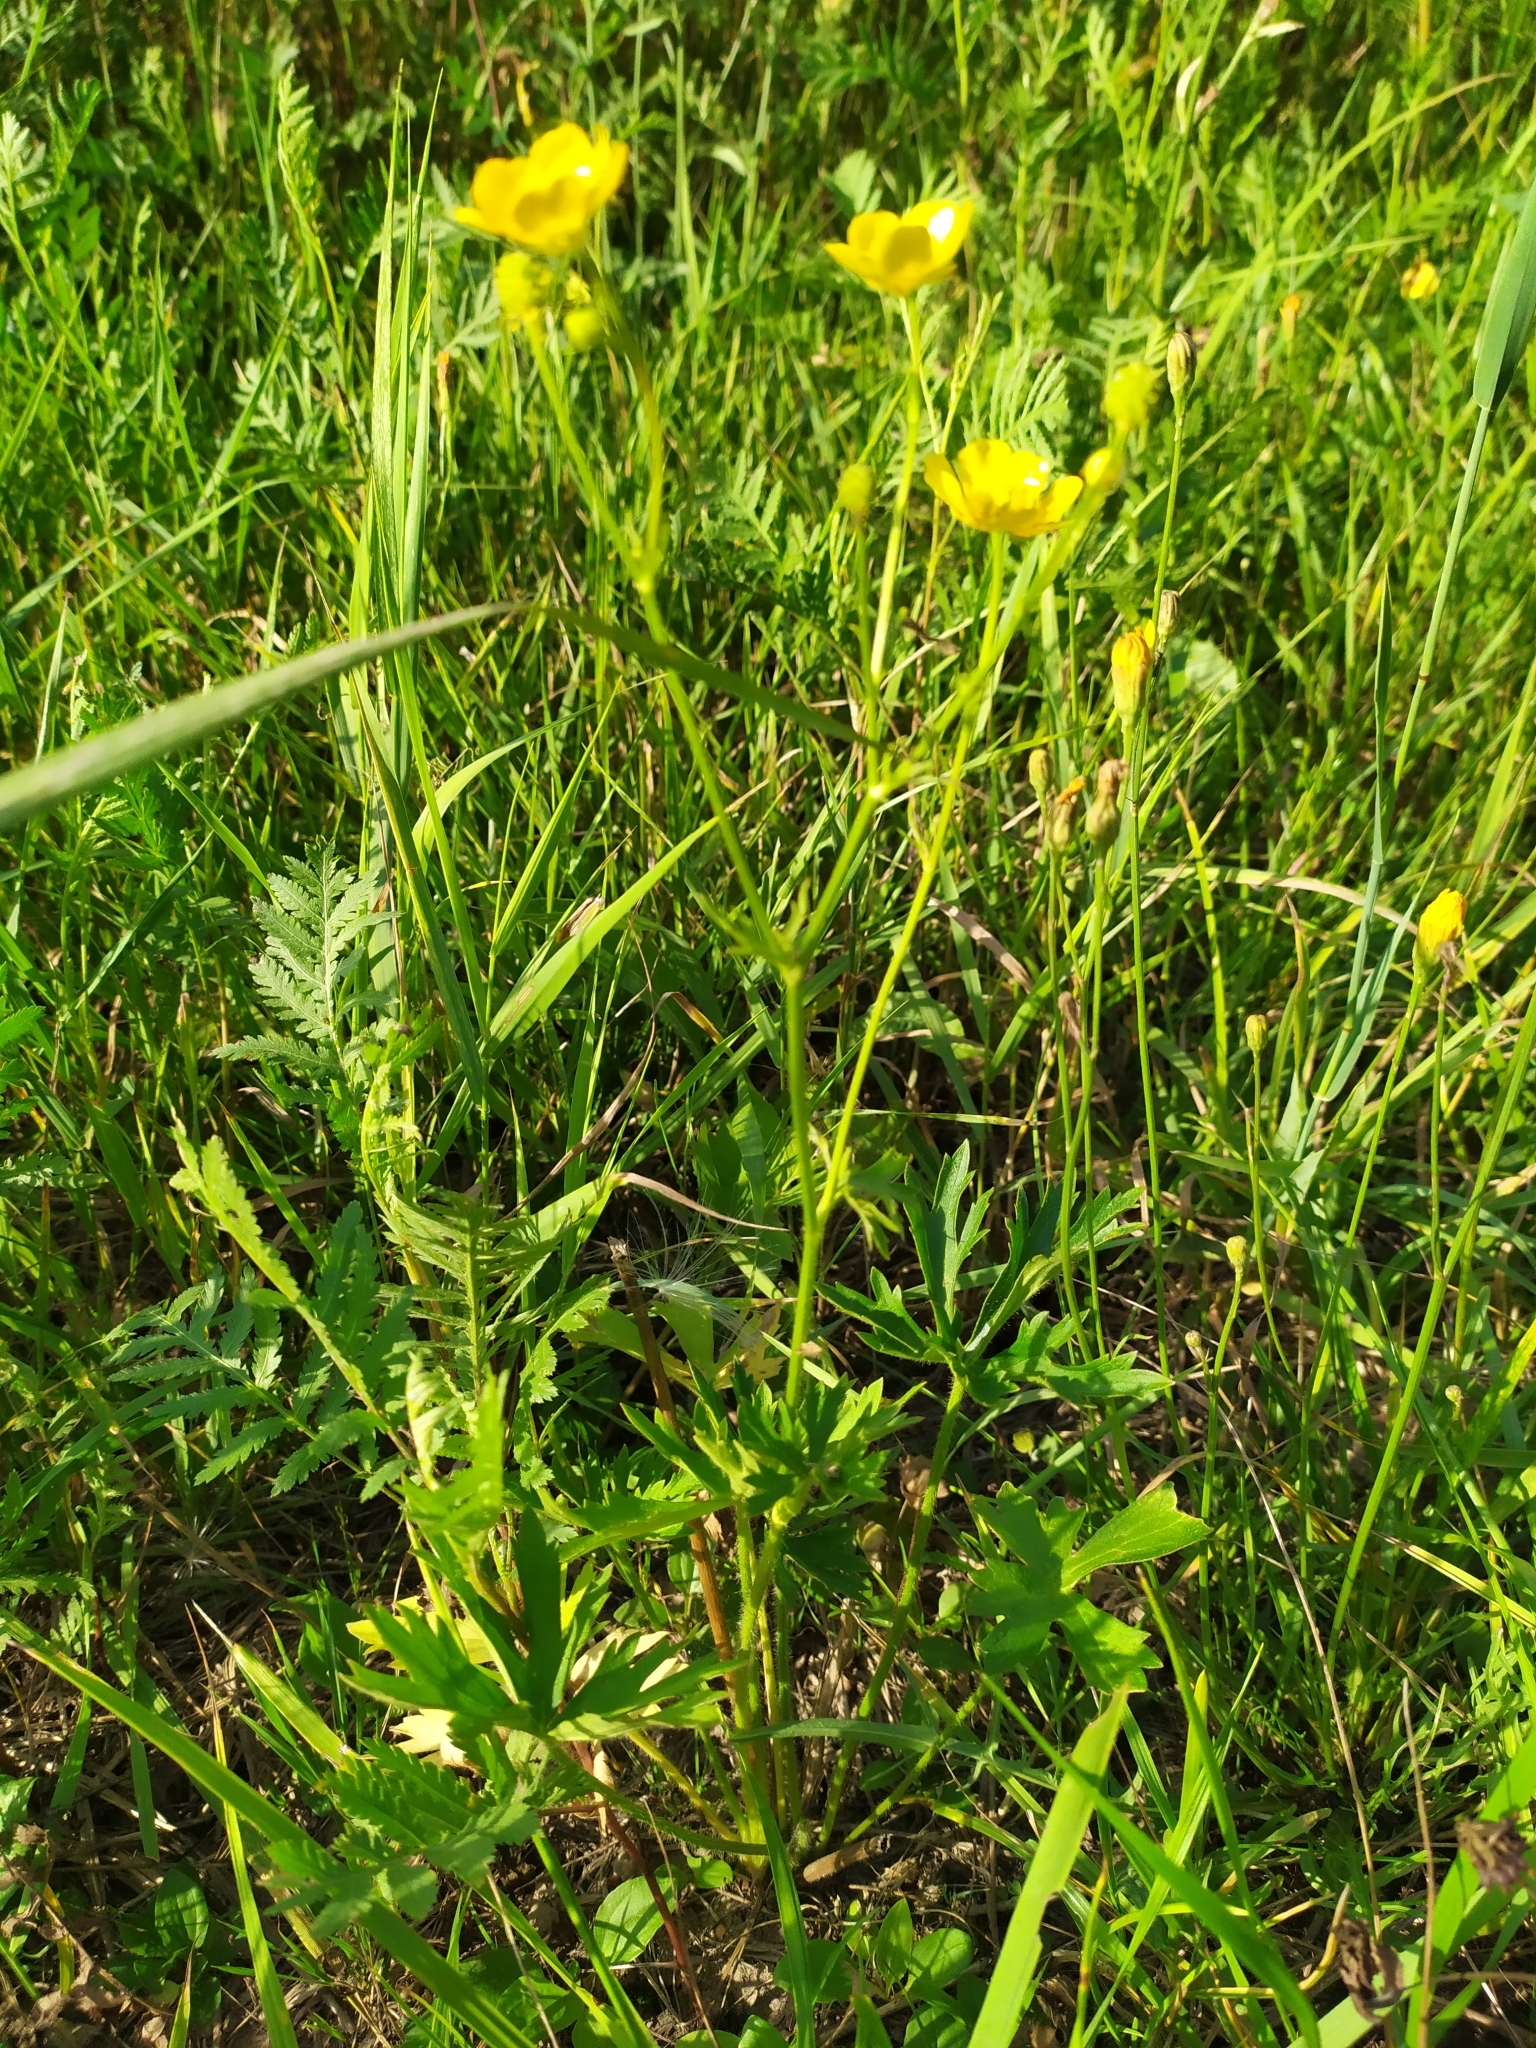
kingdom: Plantae
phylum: Tracheophyta
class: Magnoliopsida
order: Ranunculales
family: Ranunculaceae
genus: Ranunculus
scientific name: Ranunculus polyanthemos
